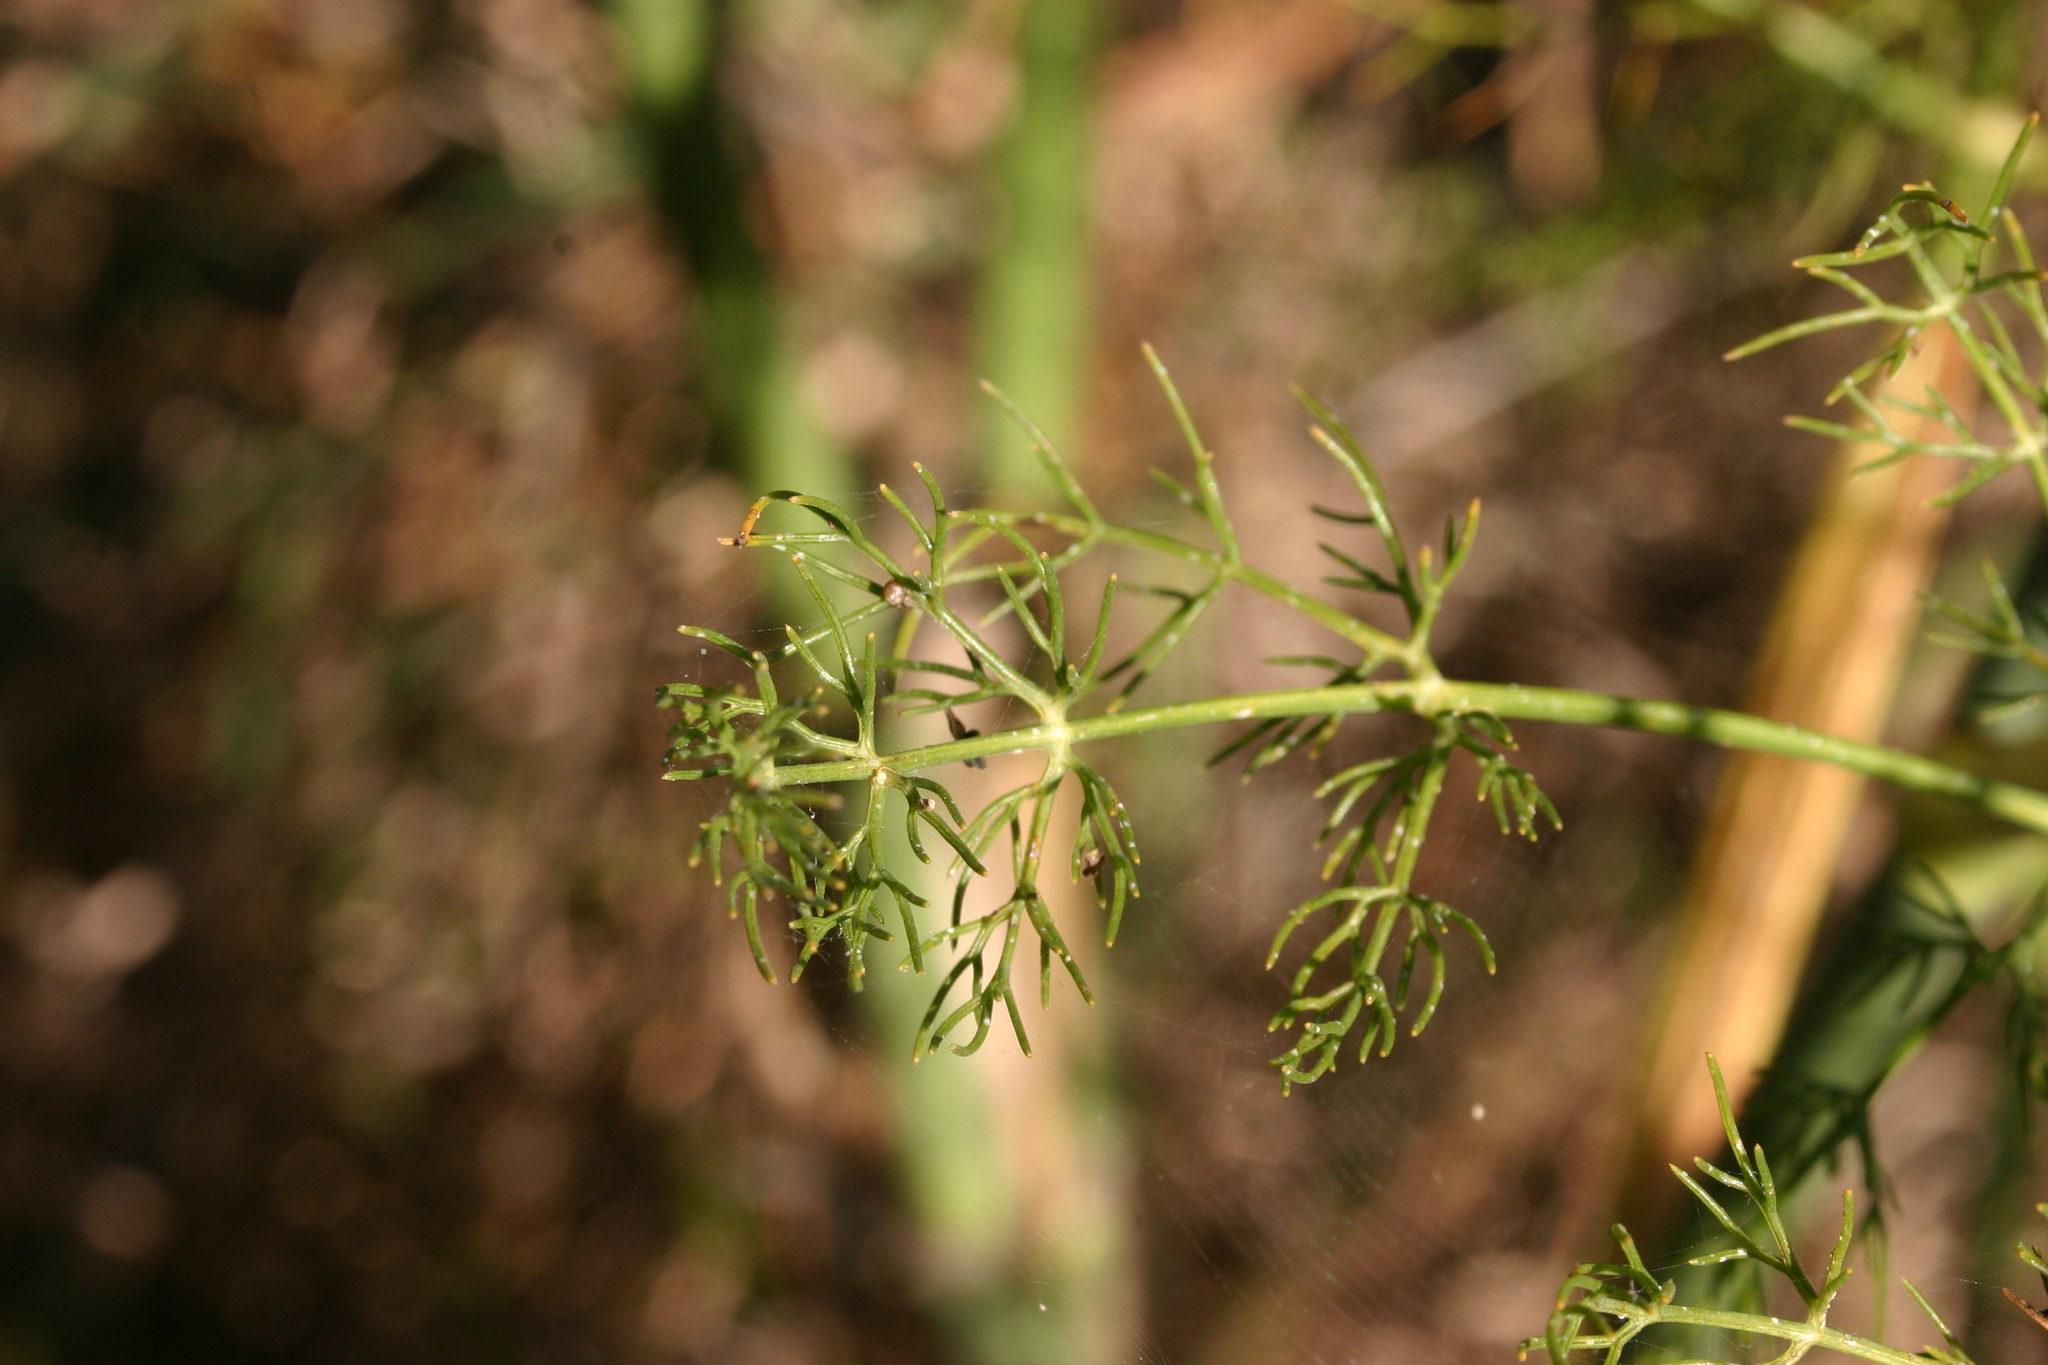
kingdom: Plantae
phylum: Tracheophyta
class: Magnoliopsida
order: Apiales
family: Apiaceae
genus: Foeniculum
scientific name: Foeniculum vulgare
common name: Fennel
